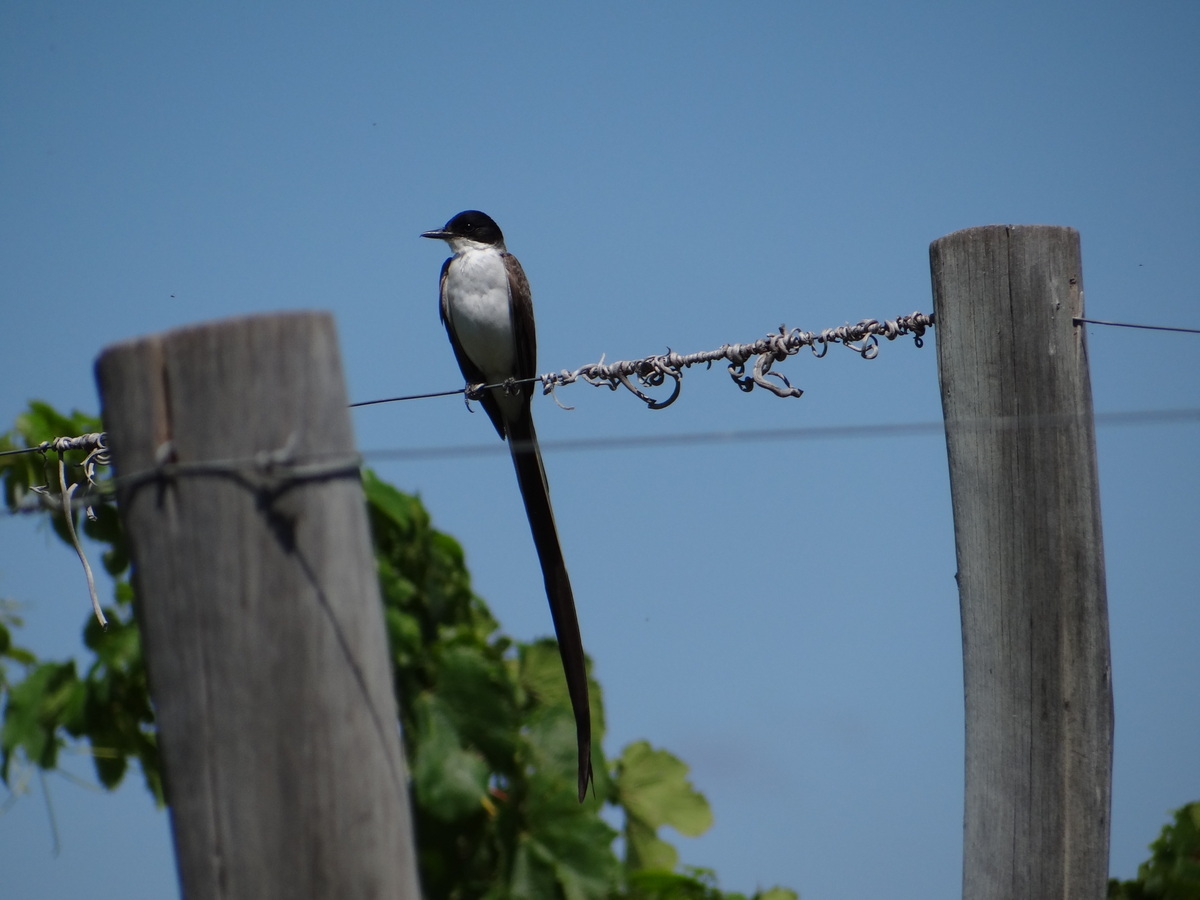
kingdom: Animalia
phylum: Chordata
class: Aves
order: Passeriformes
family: Tyrannidae
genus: Tyrannus
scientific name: Tyrannus savana
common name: Fork-tailed flycatcher
